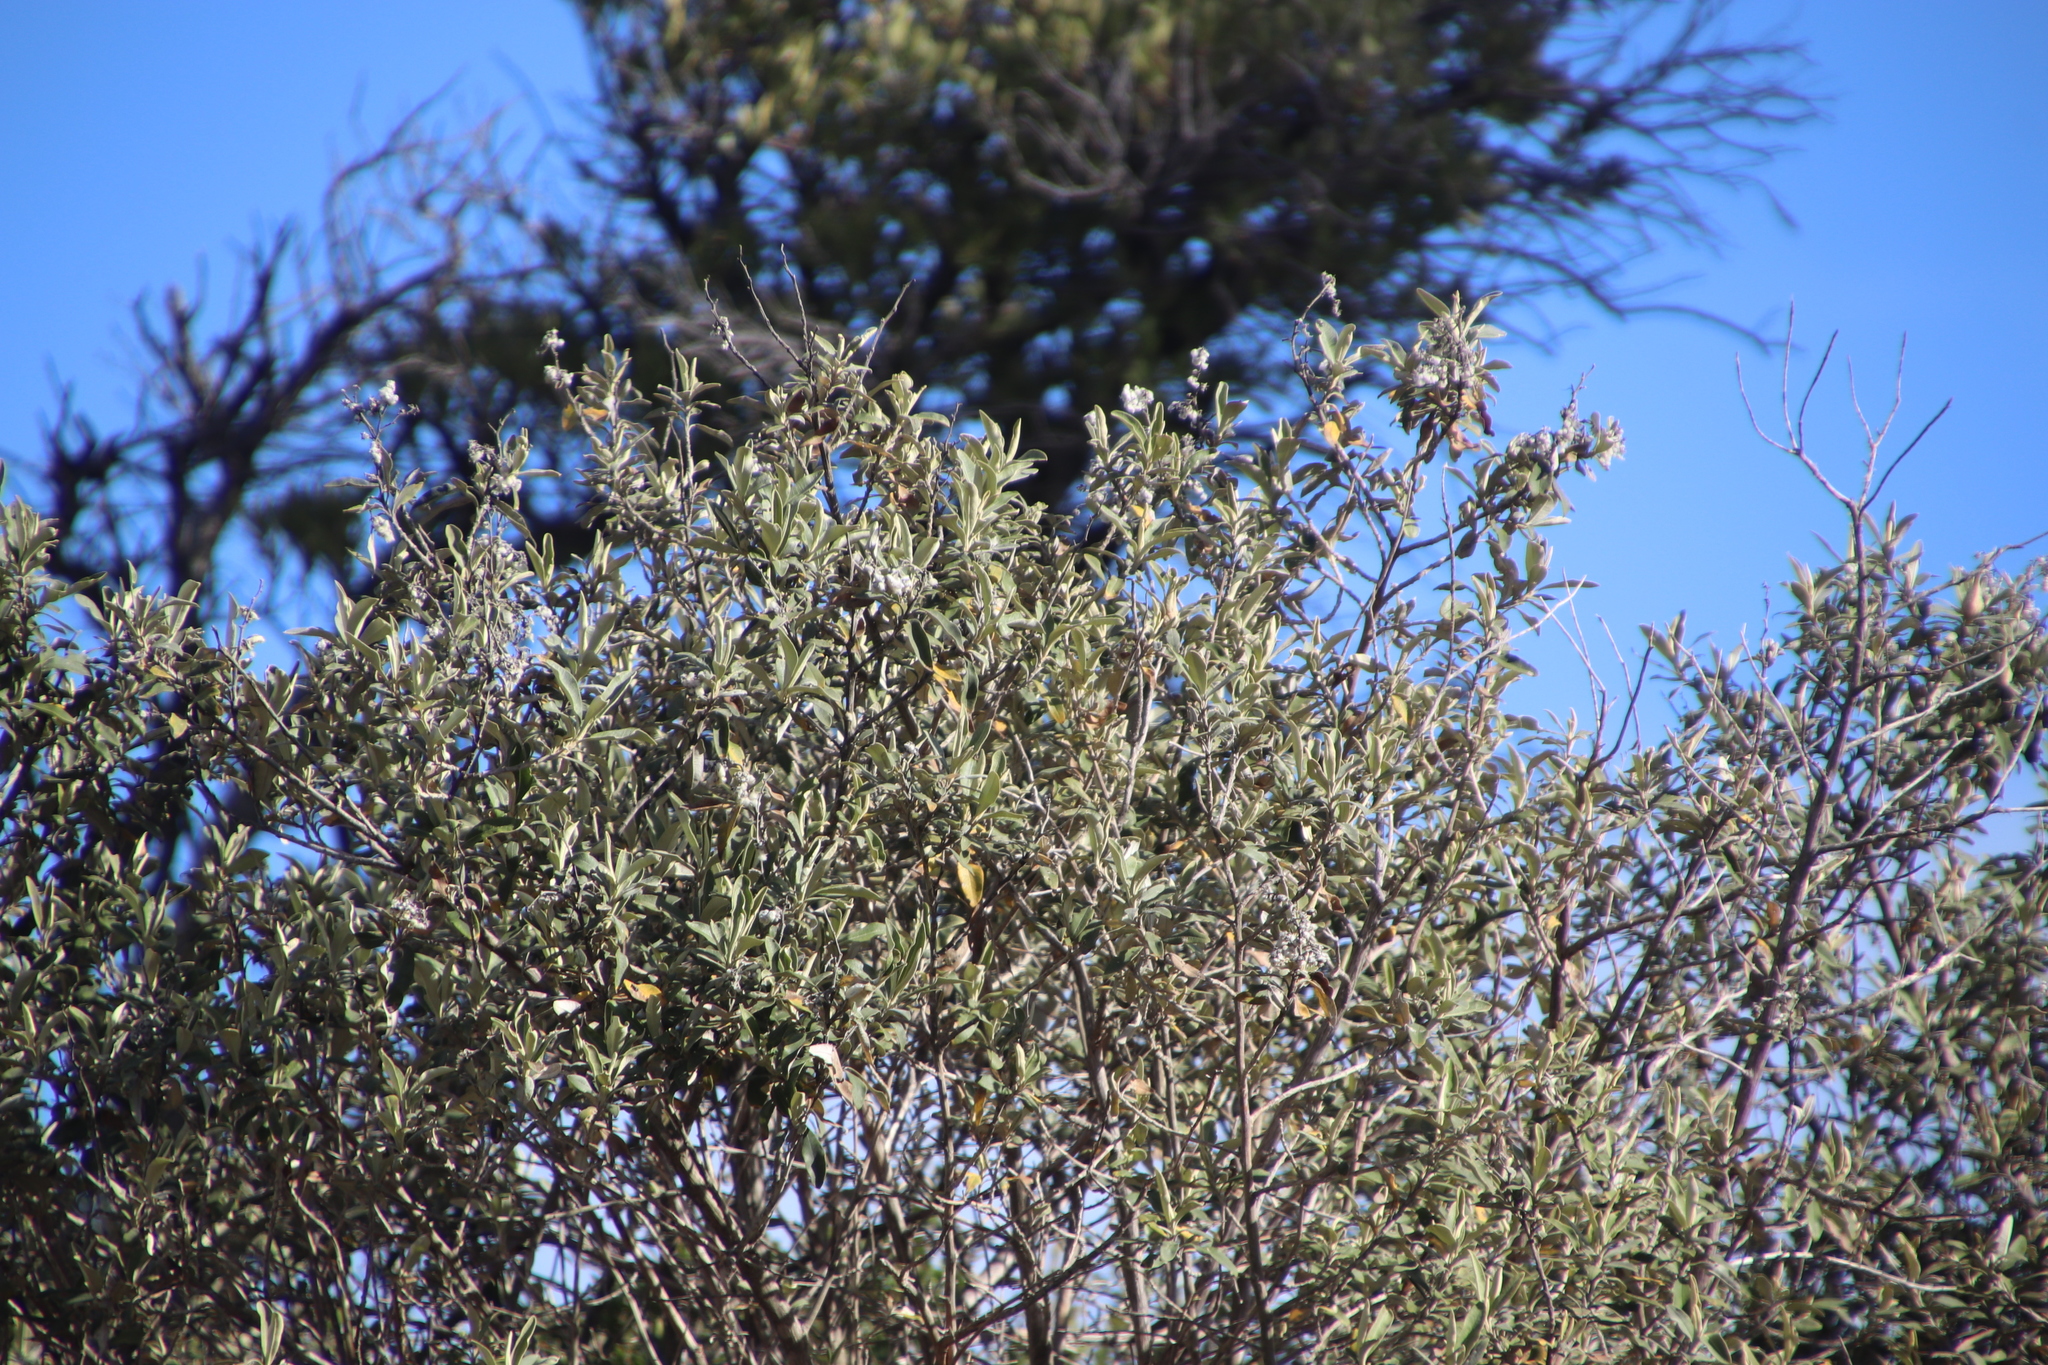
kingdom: Plantae
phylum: Tracheophyta
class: Magnoliopsida
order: Asterales
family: Asteraceae
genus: Tarchonanthus
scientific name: Tarchonanthus littoralis
